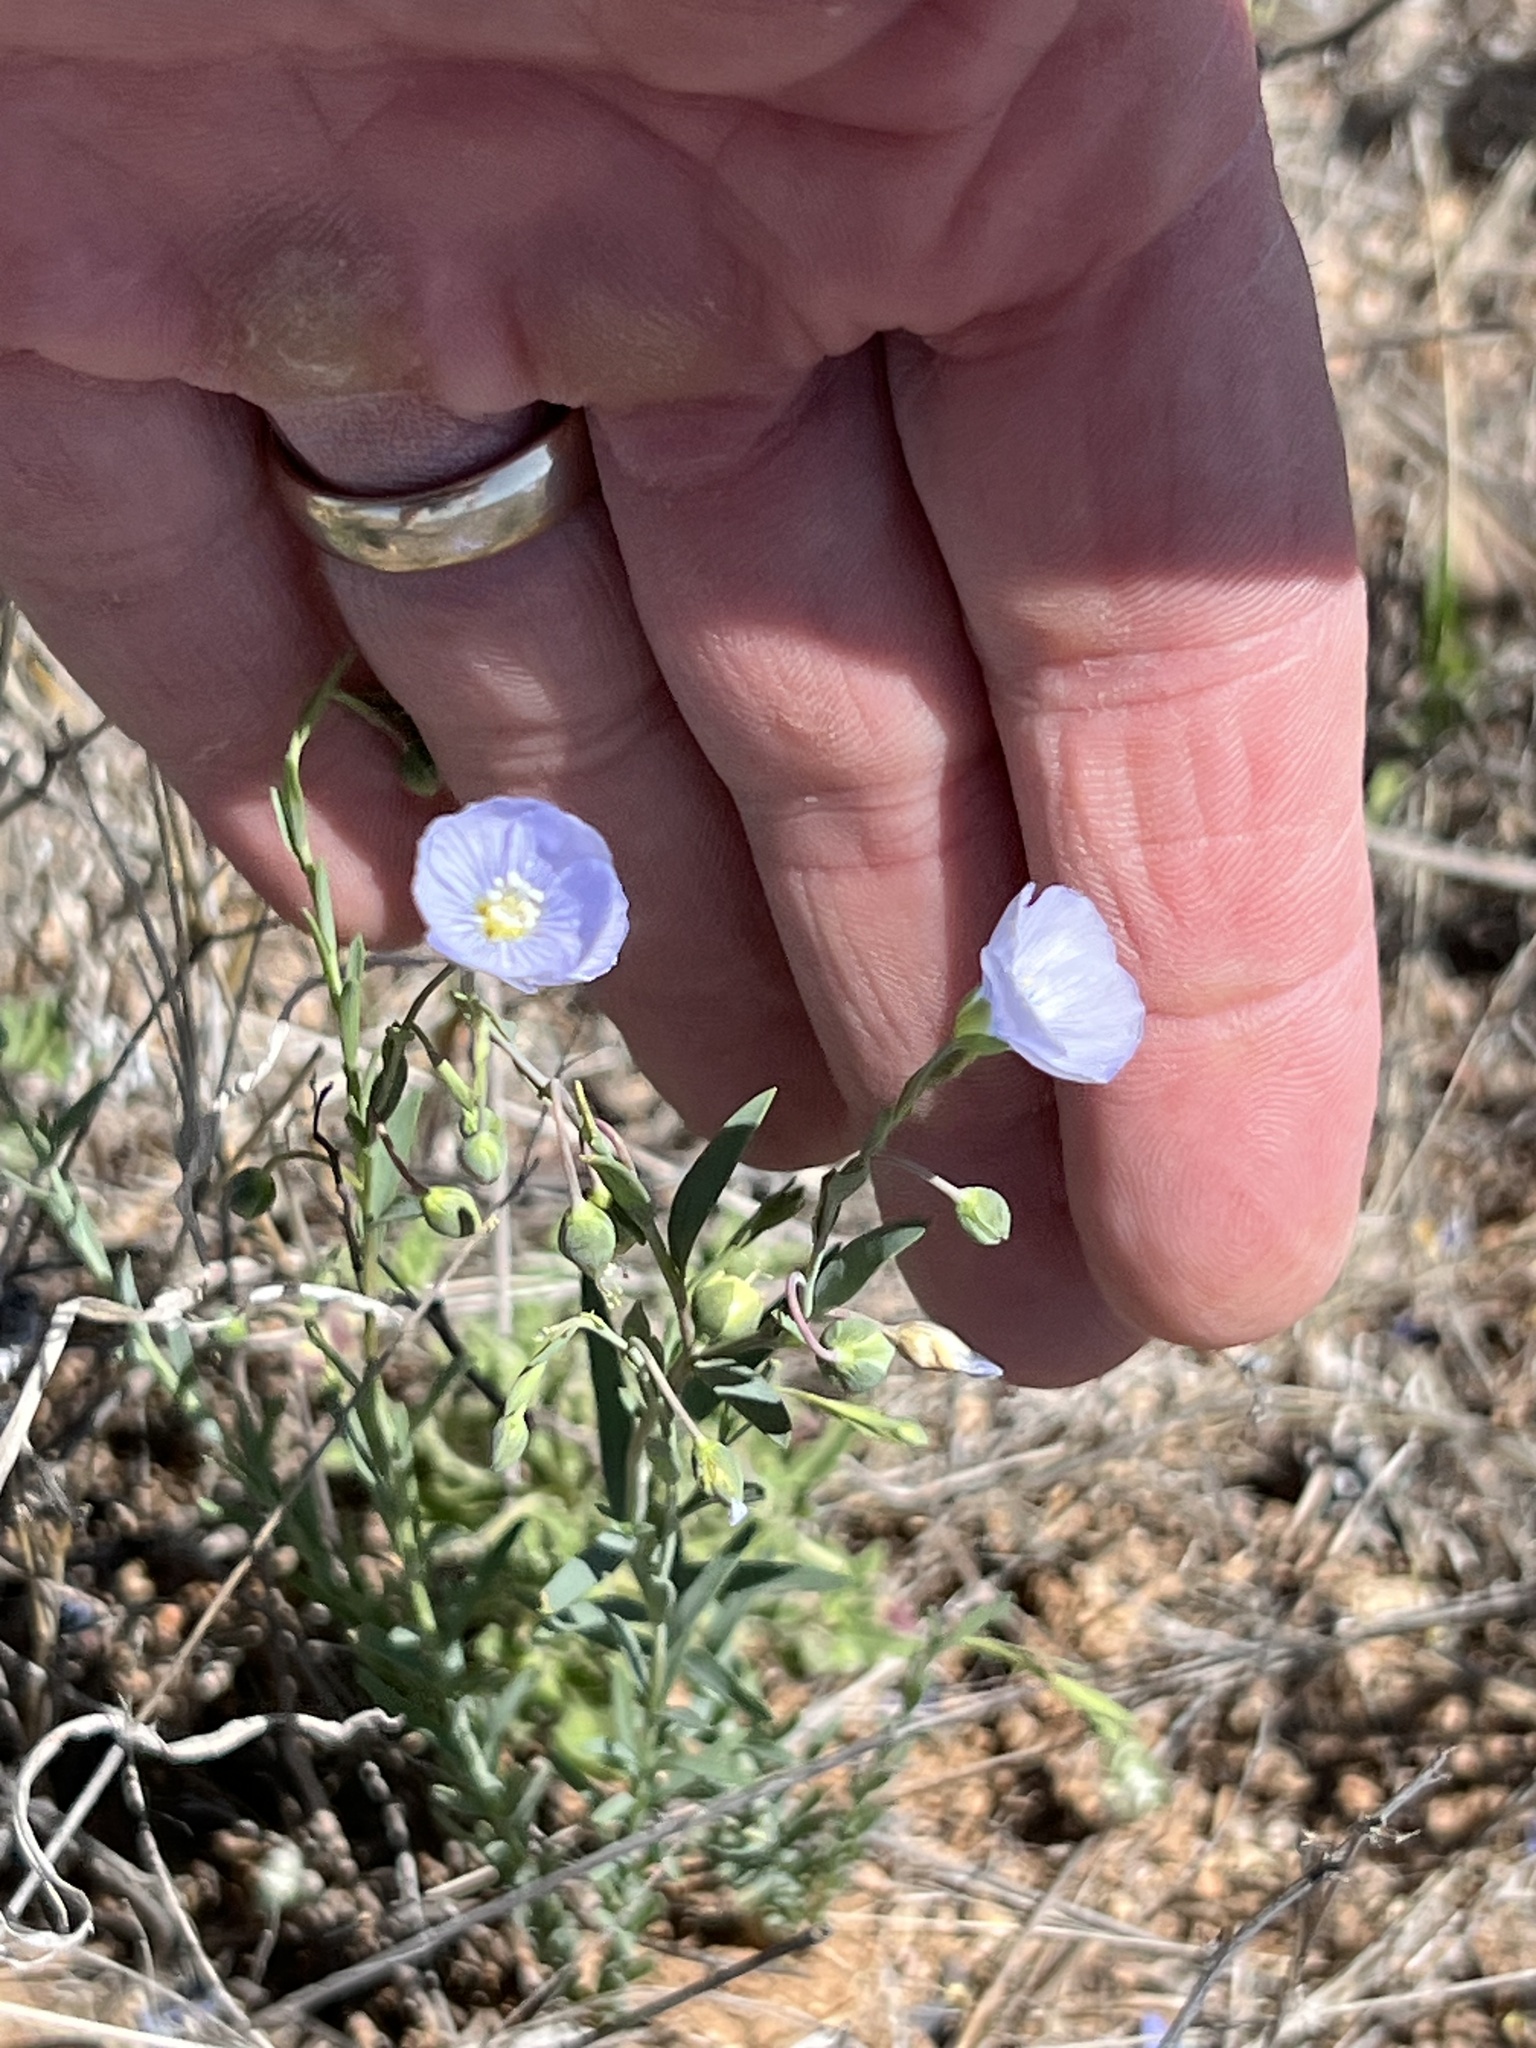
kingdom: Plantae
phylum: Tracheophyta
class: Magnoliopsida
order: Malpighiales
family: Linaceae
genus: Linum
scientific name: Linum lewisii
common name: Prairie flax
